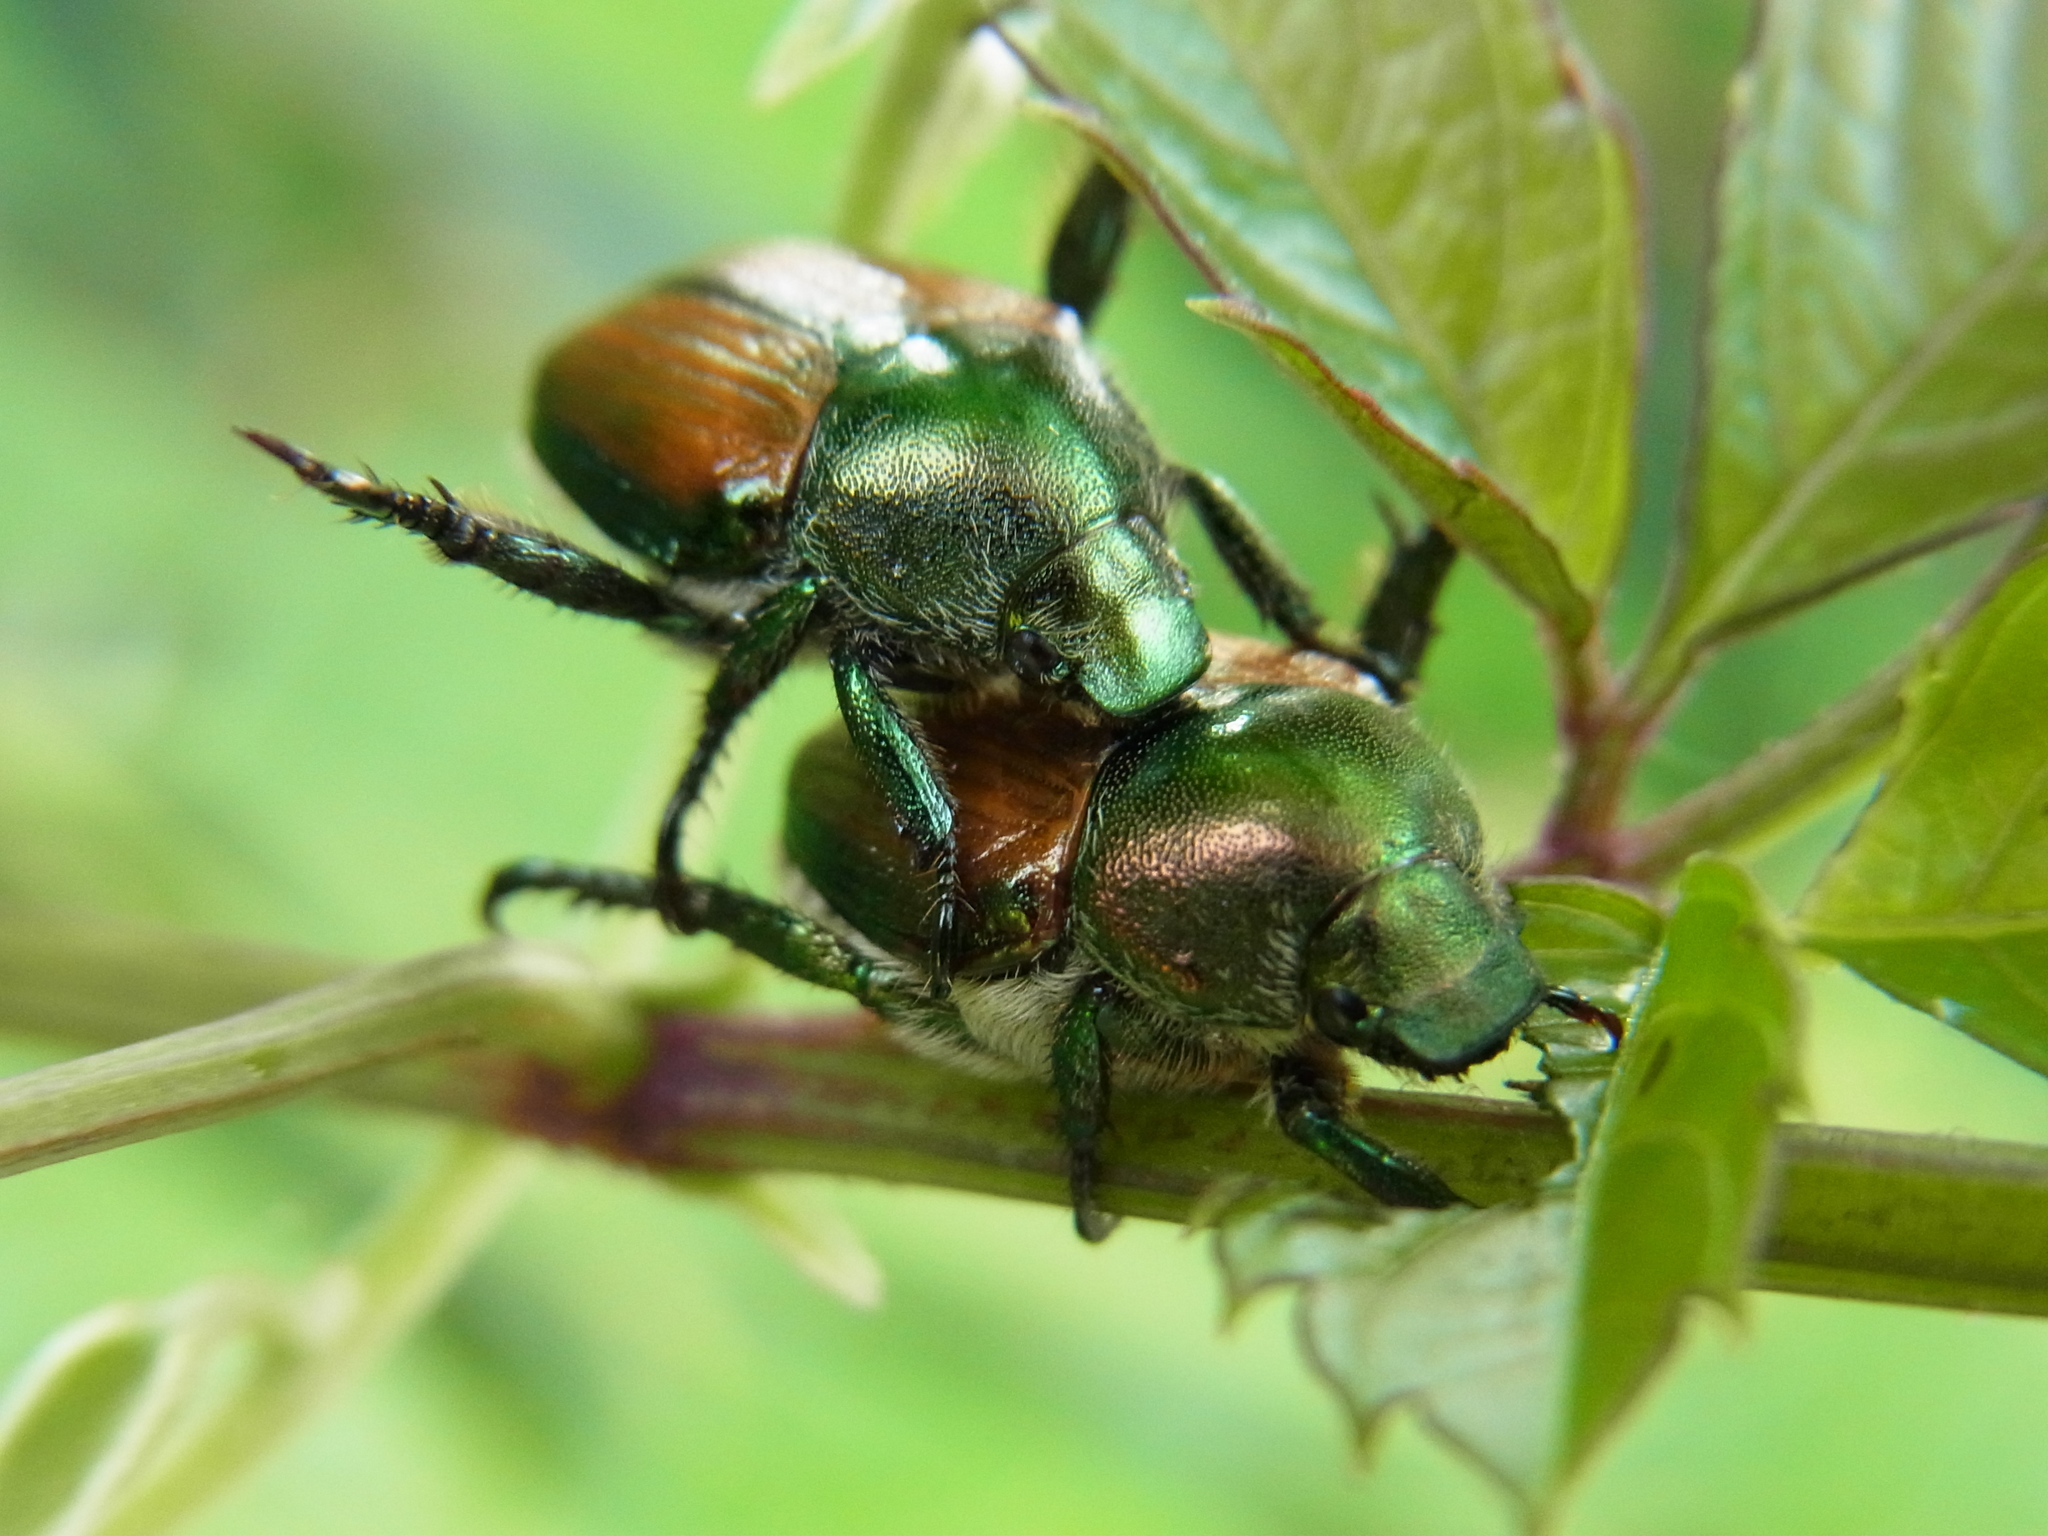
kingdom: Animalia
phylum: Arthropoda
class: Insecta
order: Coleoptera
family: Scarabaeidae
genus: Popillia
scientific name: Popillia japonica
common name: Japanese beetle
